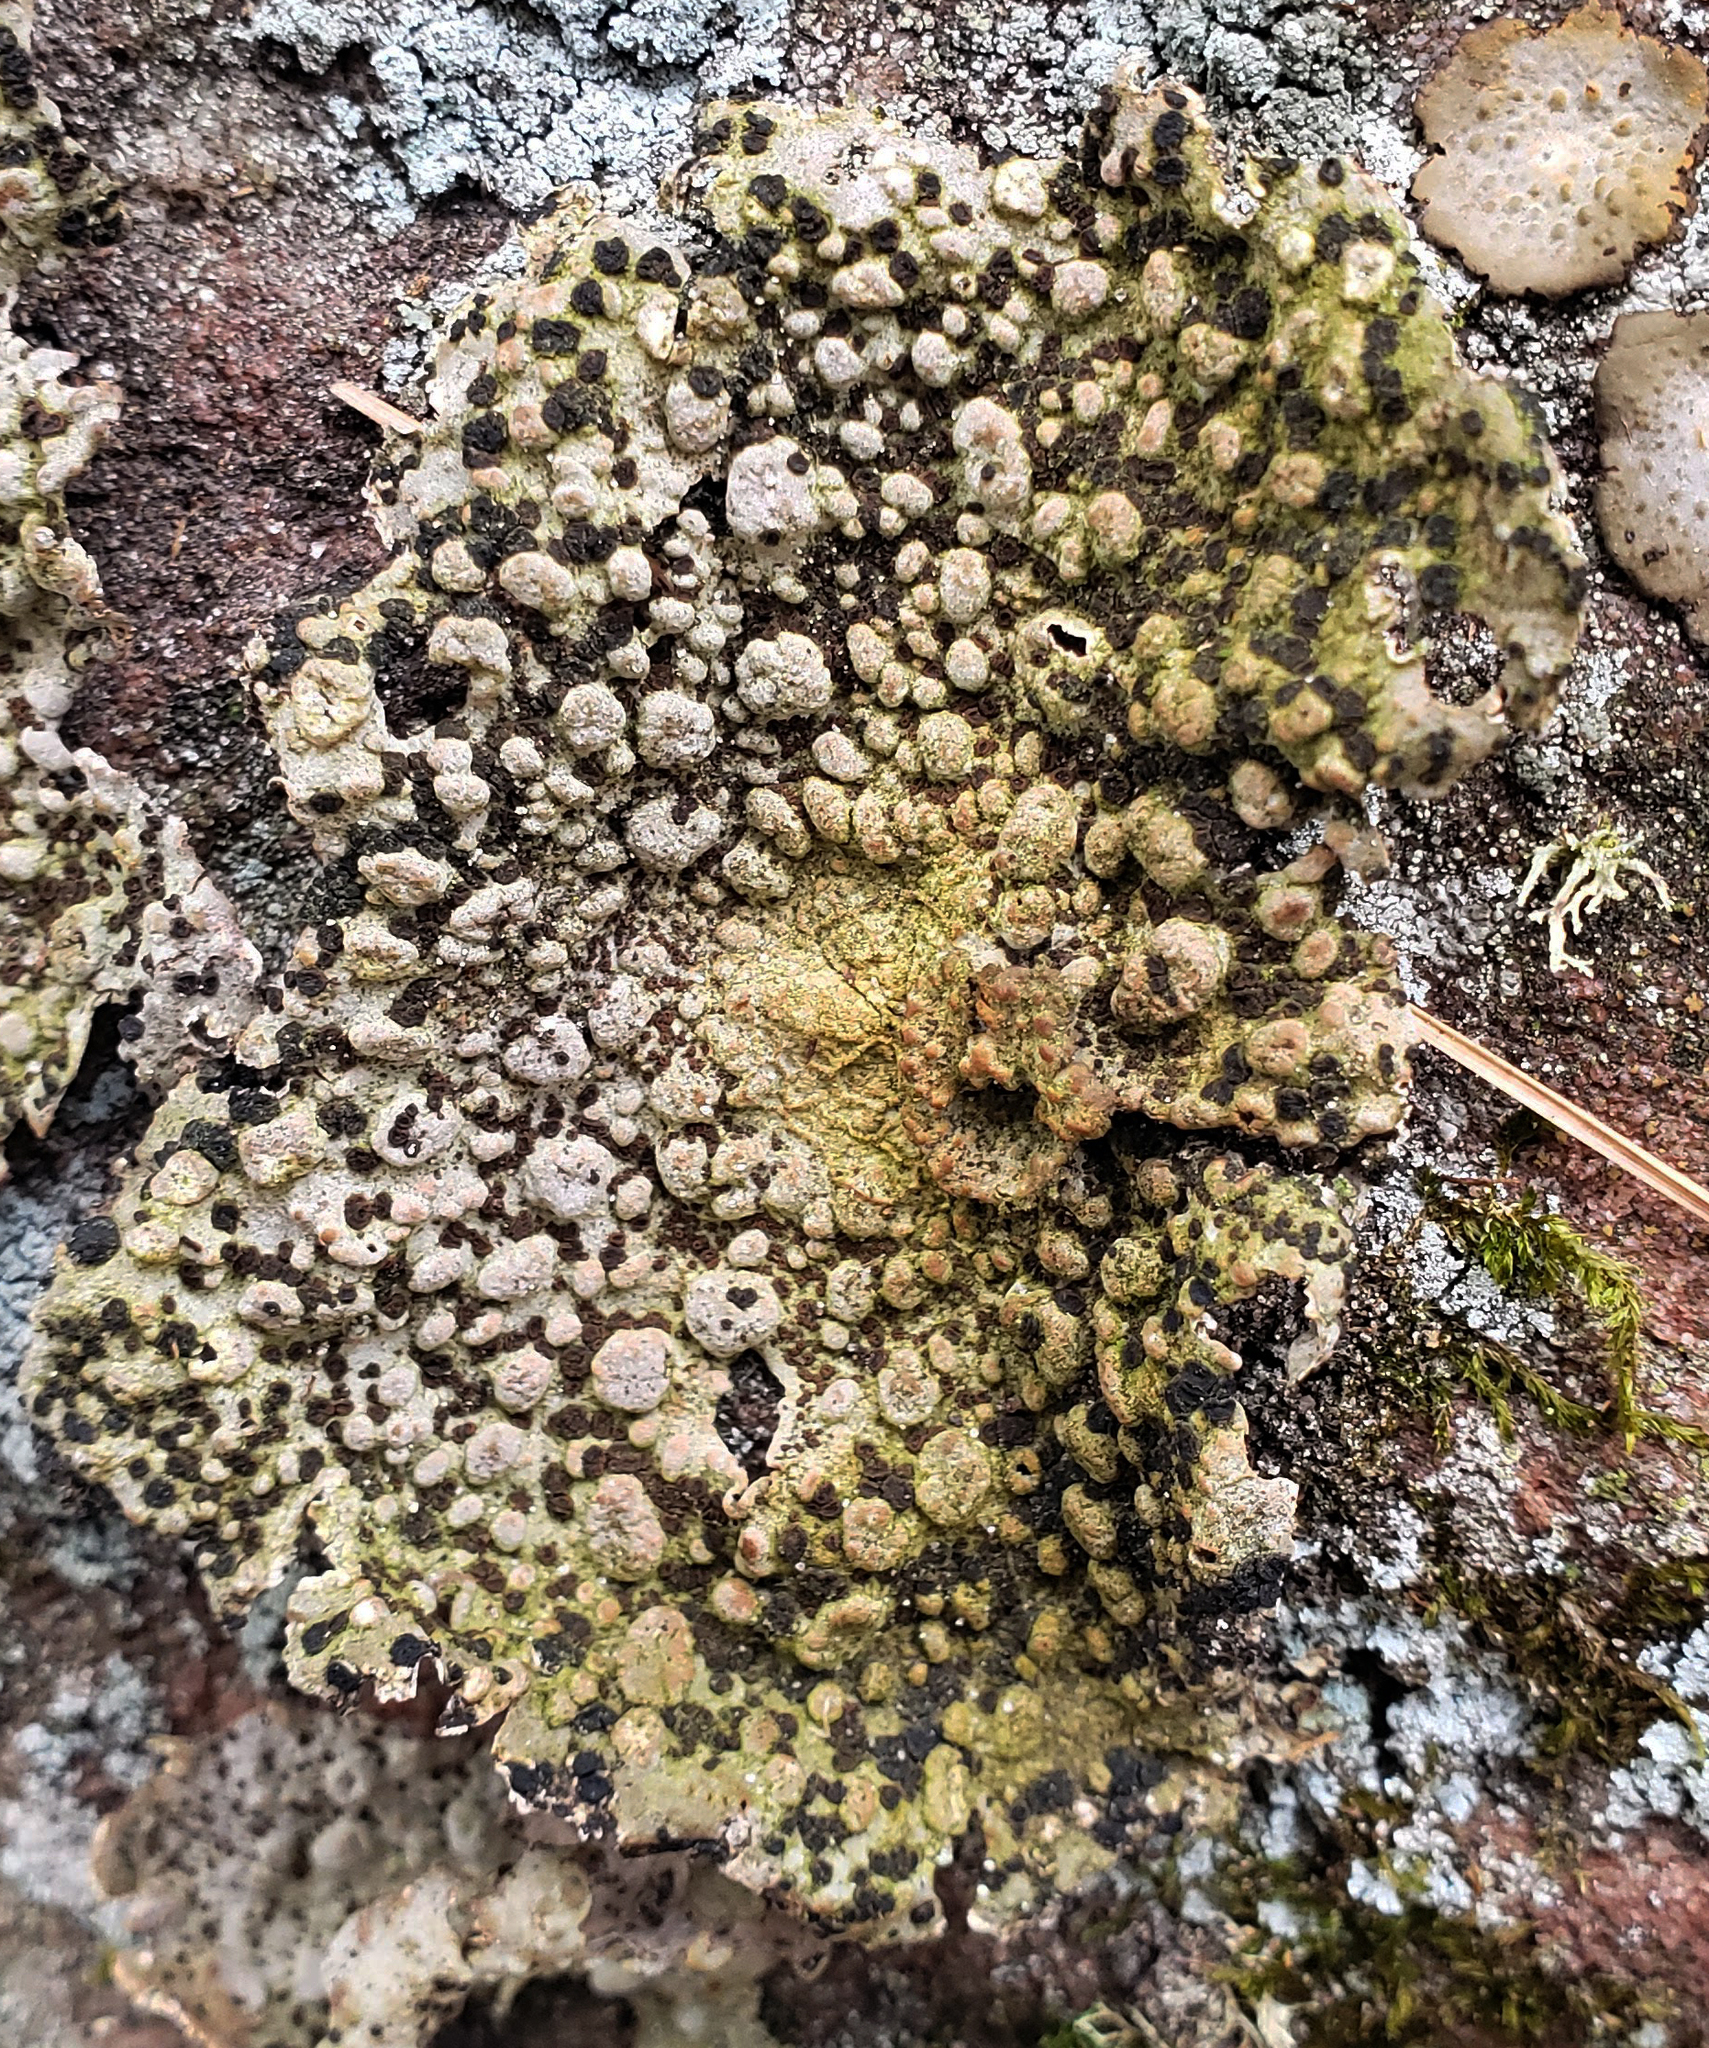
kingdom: Fungi
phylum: Ascomycota
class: Lecanoromycetes
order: Umbilicariales
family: Umbilicariaceae
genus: Lasallia
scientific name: Lasallia papulosa
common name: Common toadskin lichen
